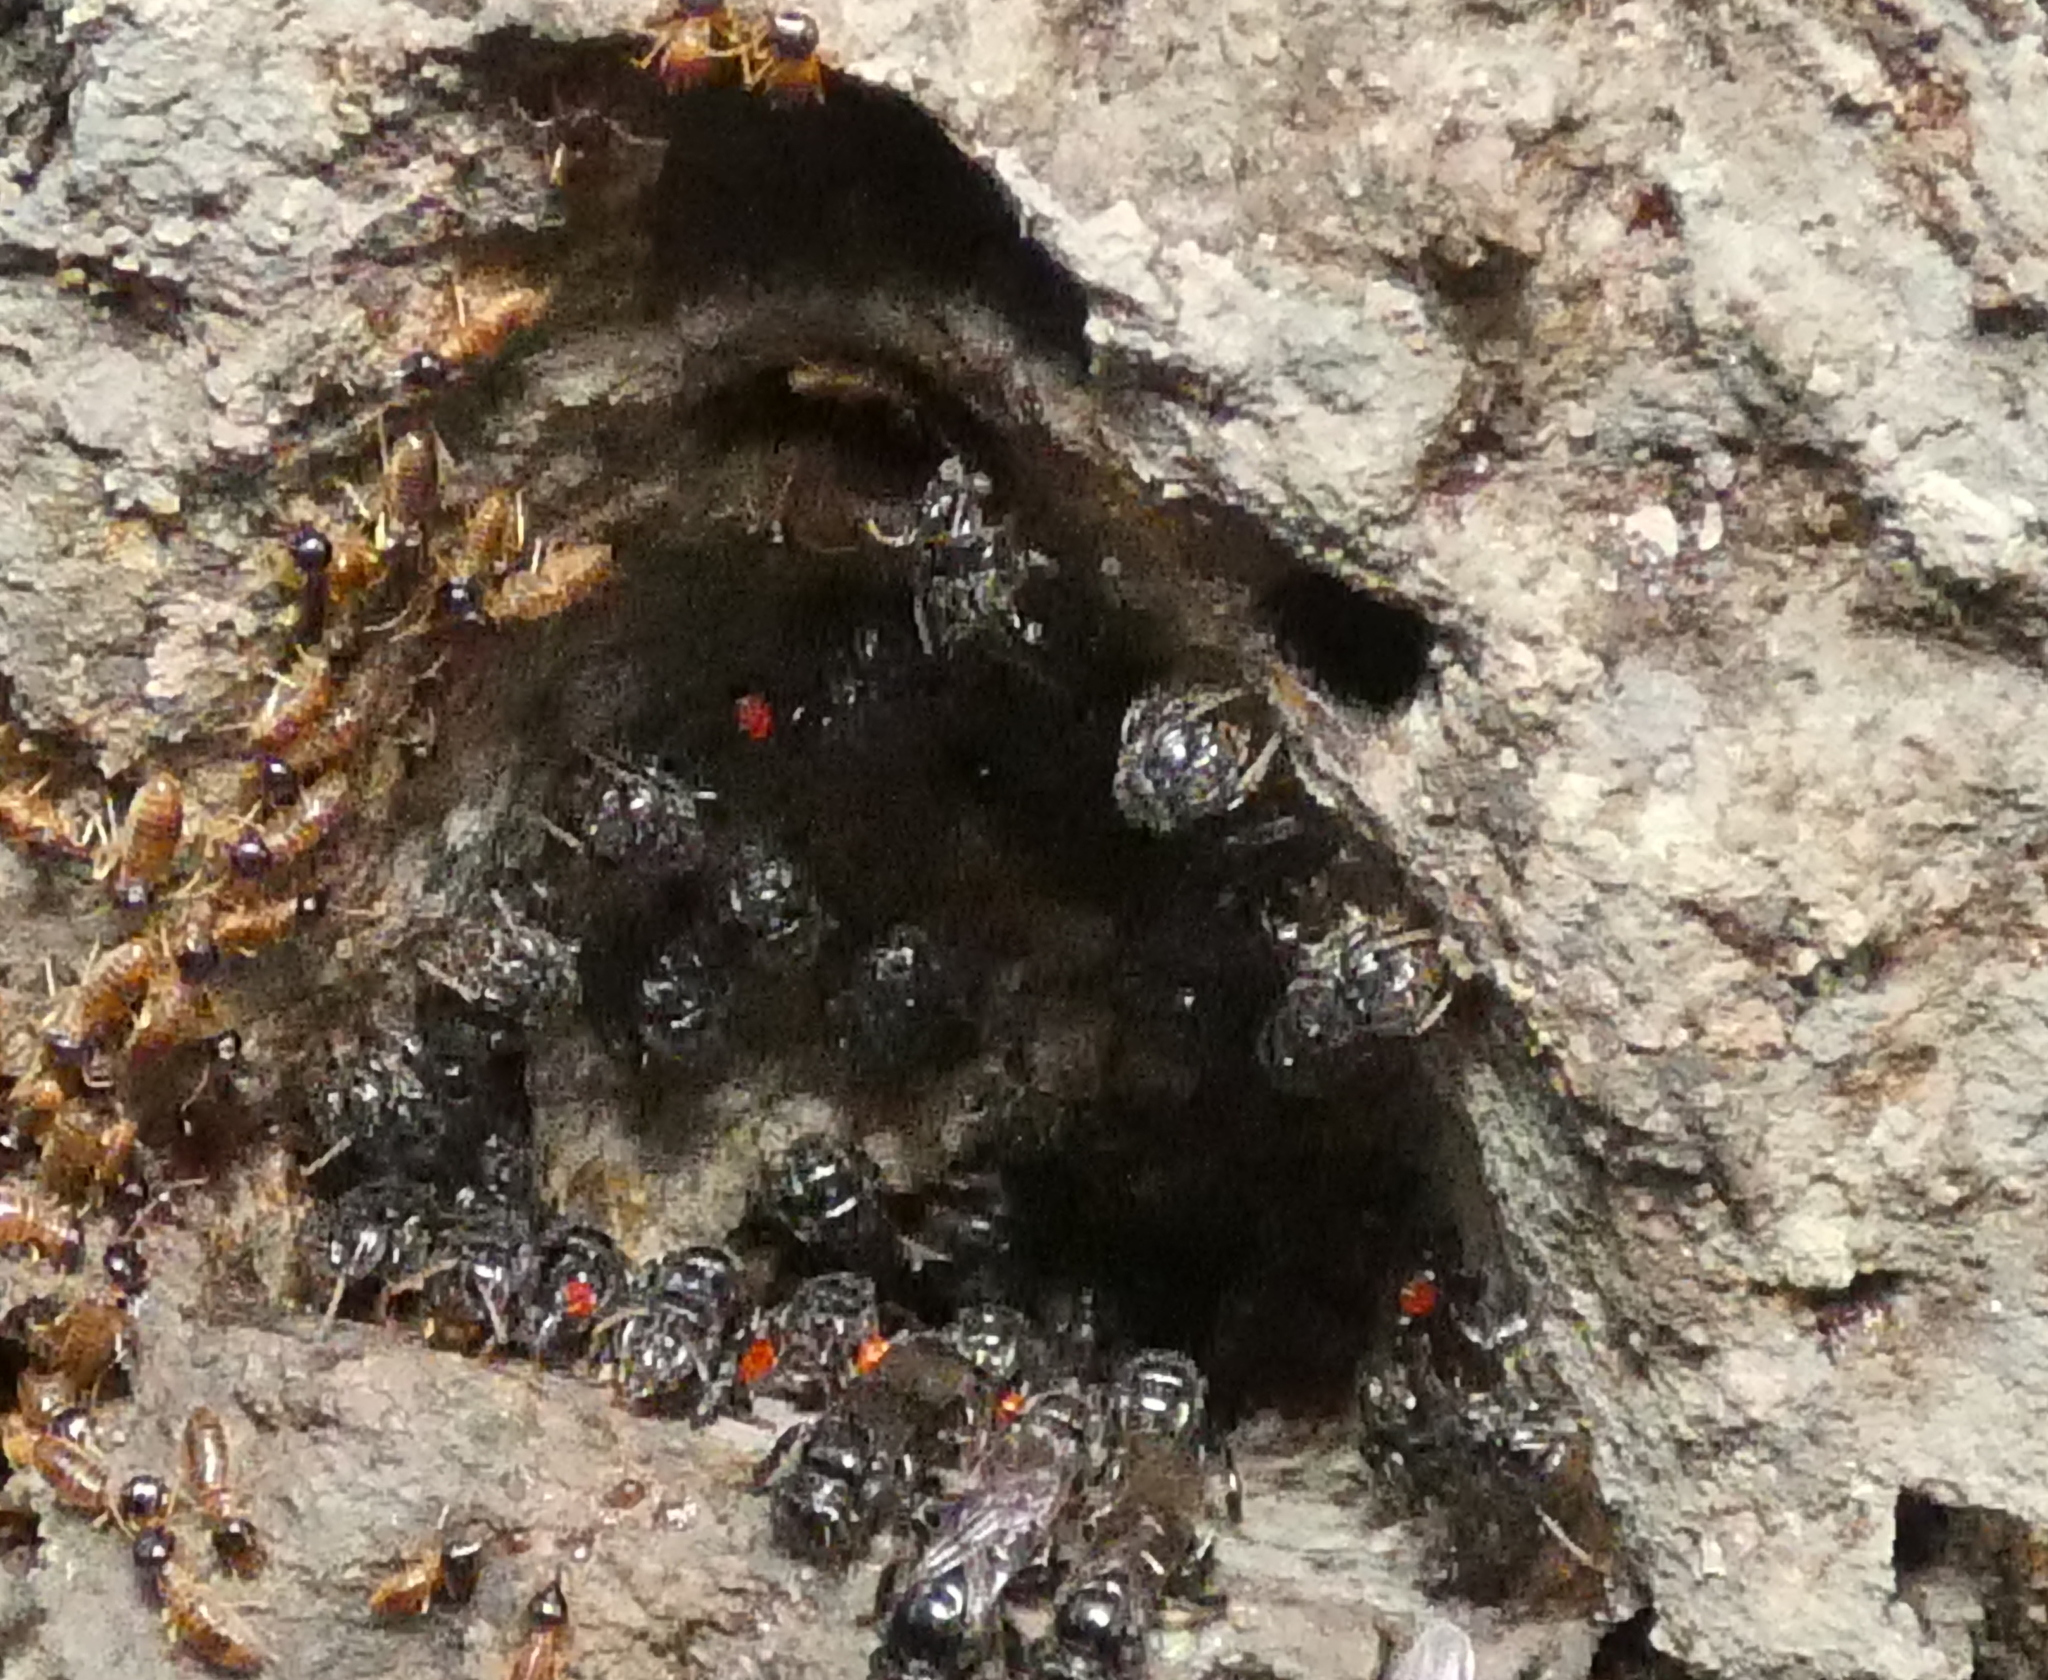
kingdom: Animalia
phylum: Arthropoda
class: Insecta
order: Hymenoptera
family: Apidae
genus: Partamona
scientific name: Partamona helleri
